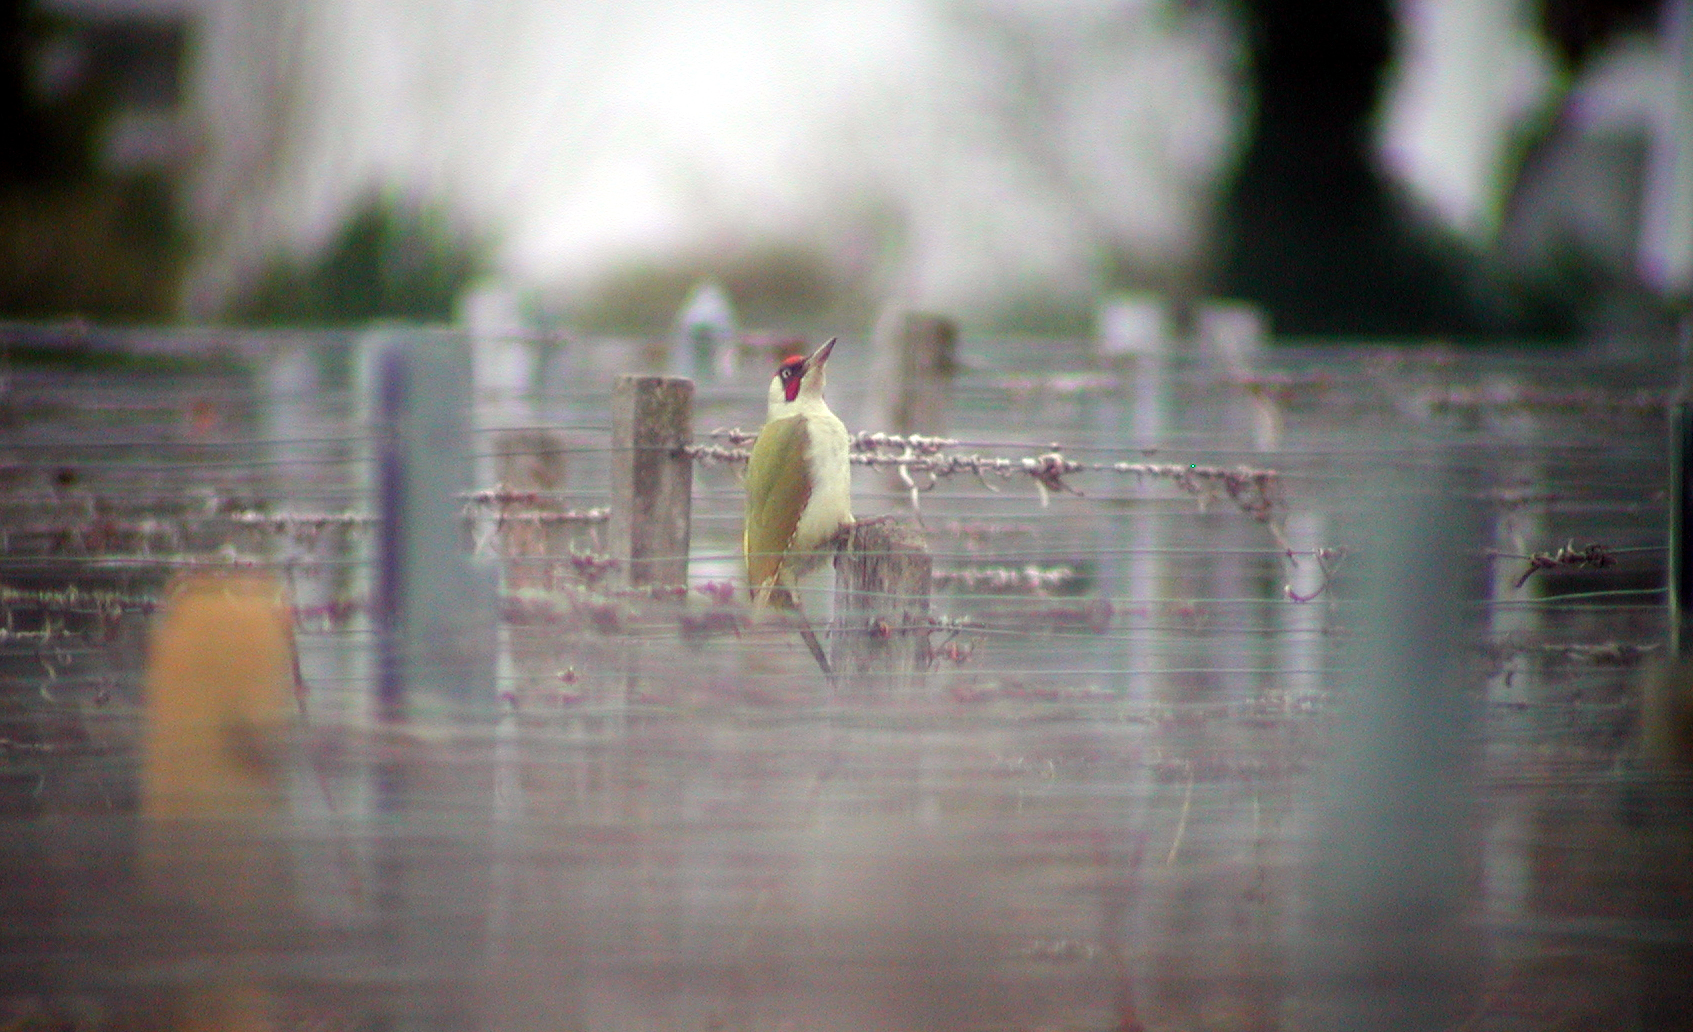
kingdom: Animalia
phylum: Chordata
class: Aves
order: Piciformes
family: Picidae
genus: Picus
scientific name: Picus viridis
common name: European green woodpecker
